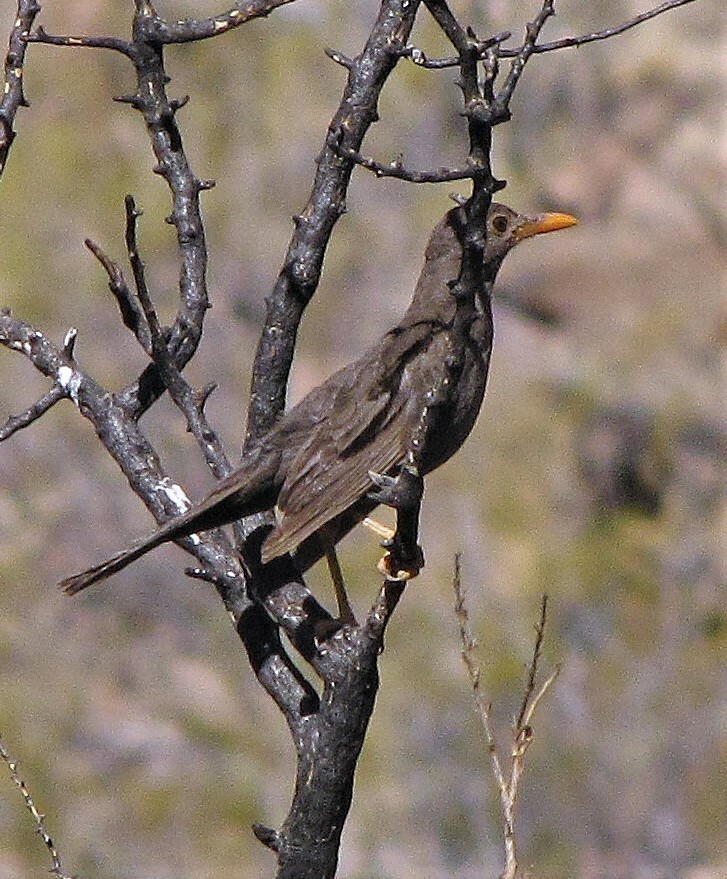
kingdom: Animalia
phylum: Chordata
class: Aves
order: Passeriformes
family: Turdidae
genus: Turdus
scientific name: Turdus chiguanco
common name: Chiguanco thrush
